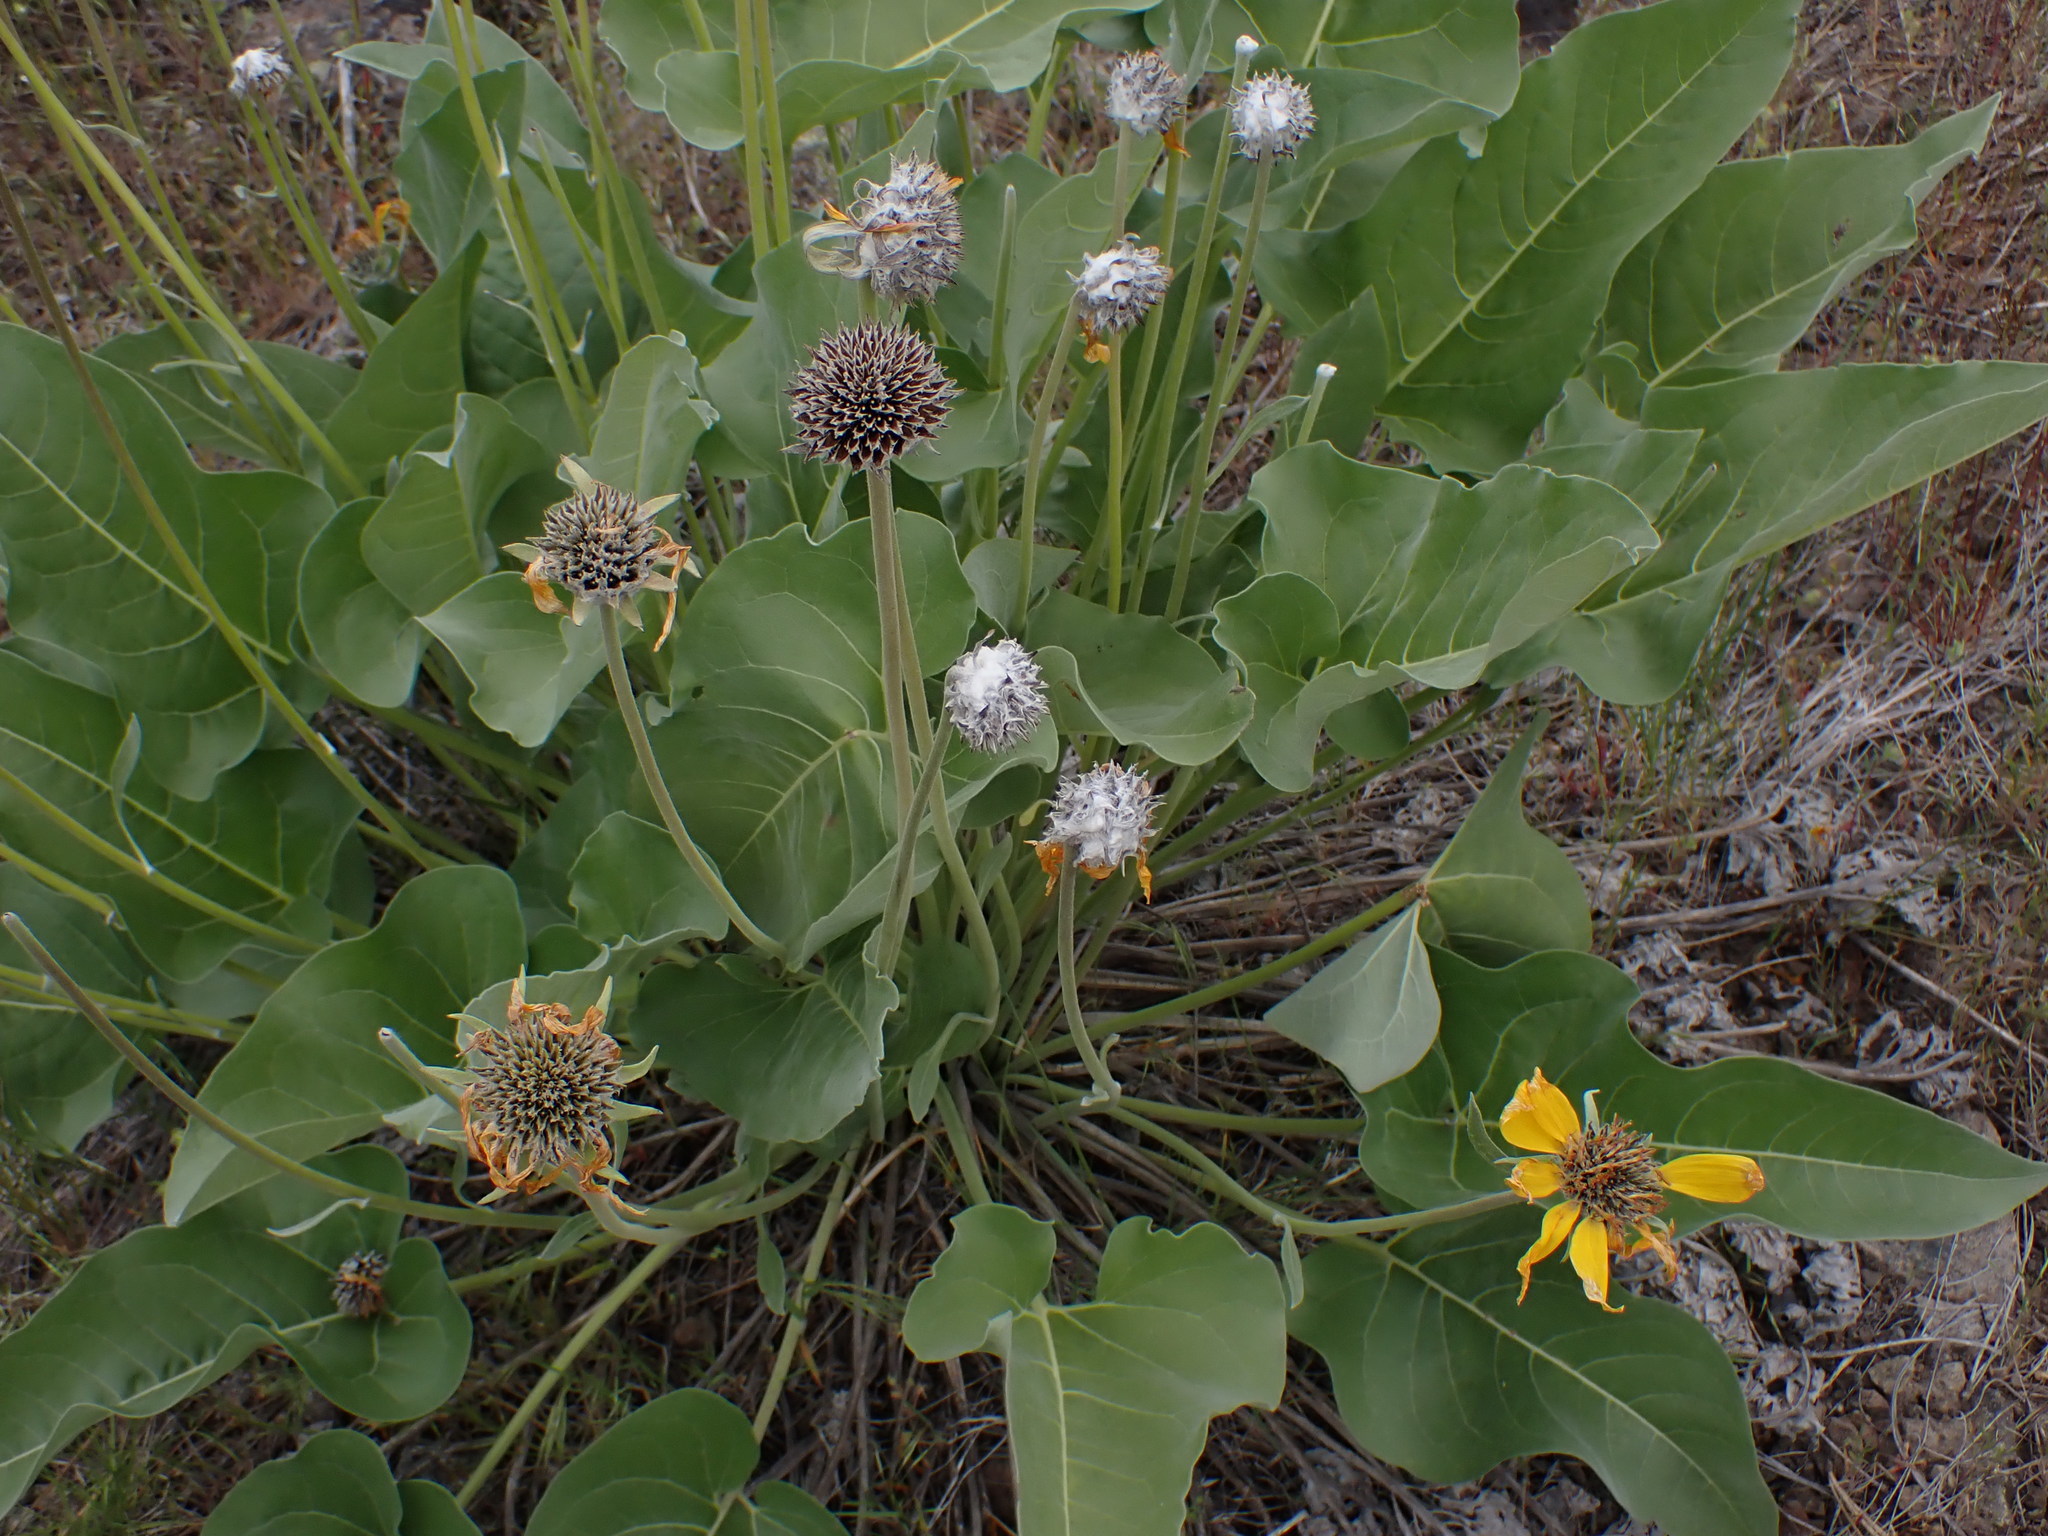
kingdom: Plantae
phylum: Tracheophyta
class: Magnoliopsida
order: Asterales
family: Asteraceae
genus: Wyethia
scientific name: Wyethia sagittata
